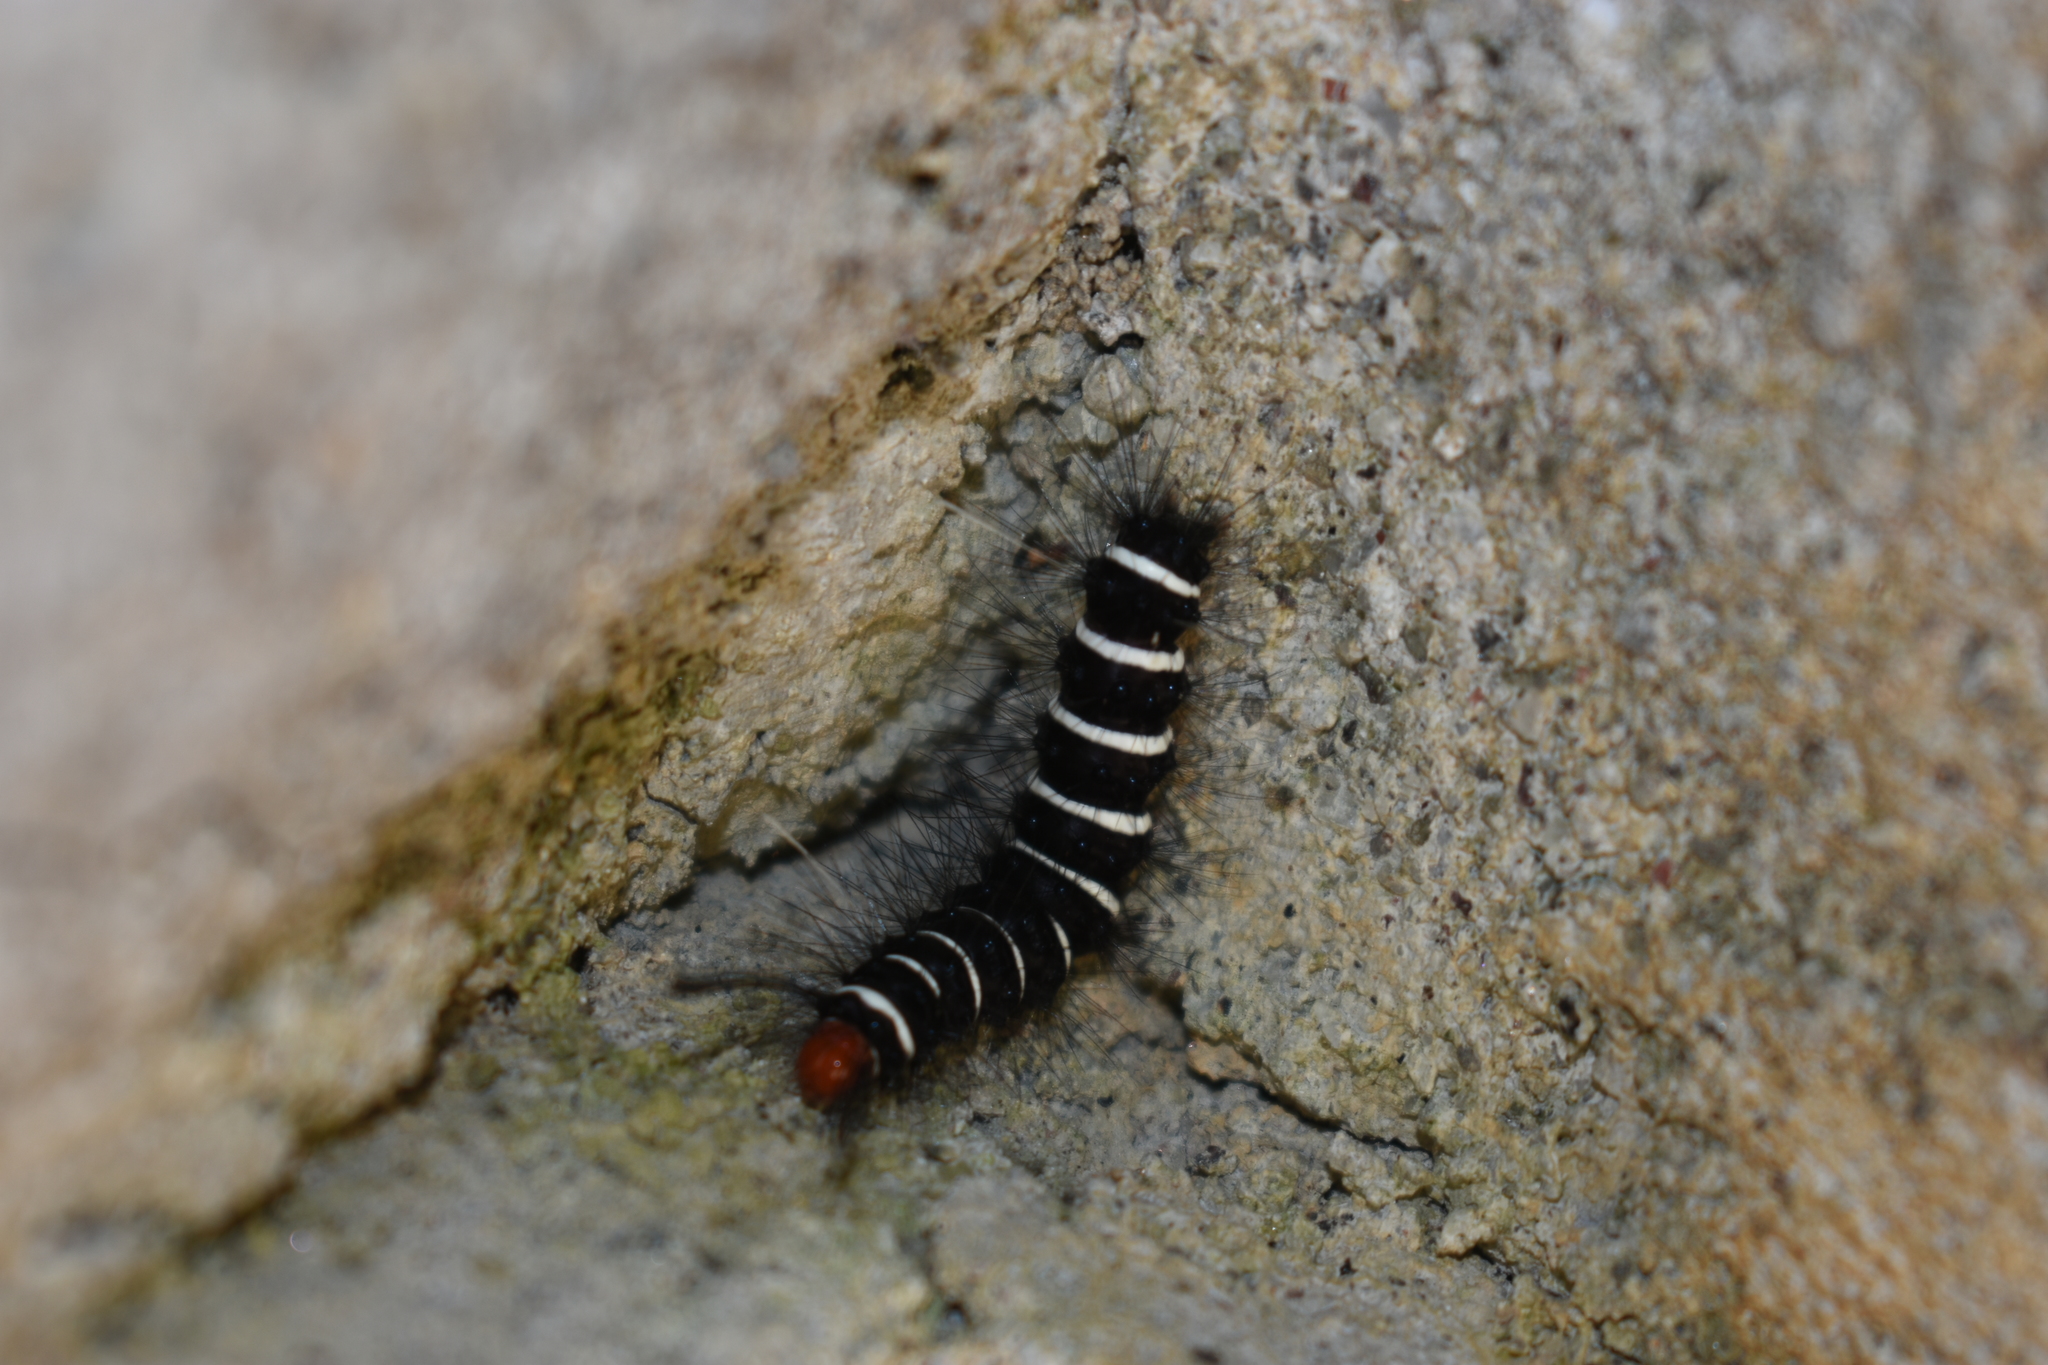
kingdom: Animalia
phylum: Arthropoda
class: Insecta
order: Lepidoptera
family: Erebidae
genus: Nyctemera
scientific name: Nyctemera coleta
